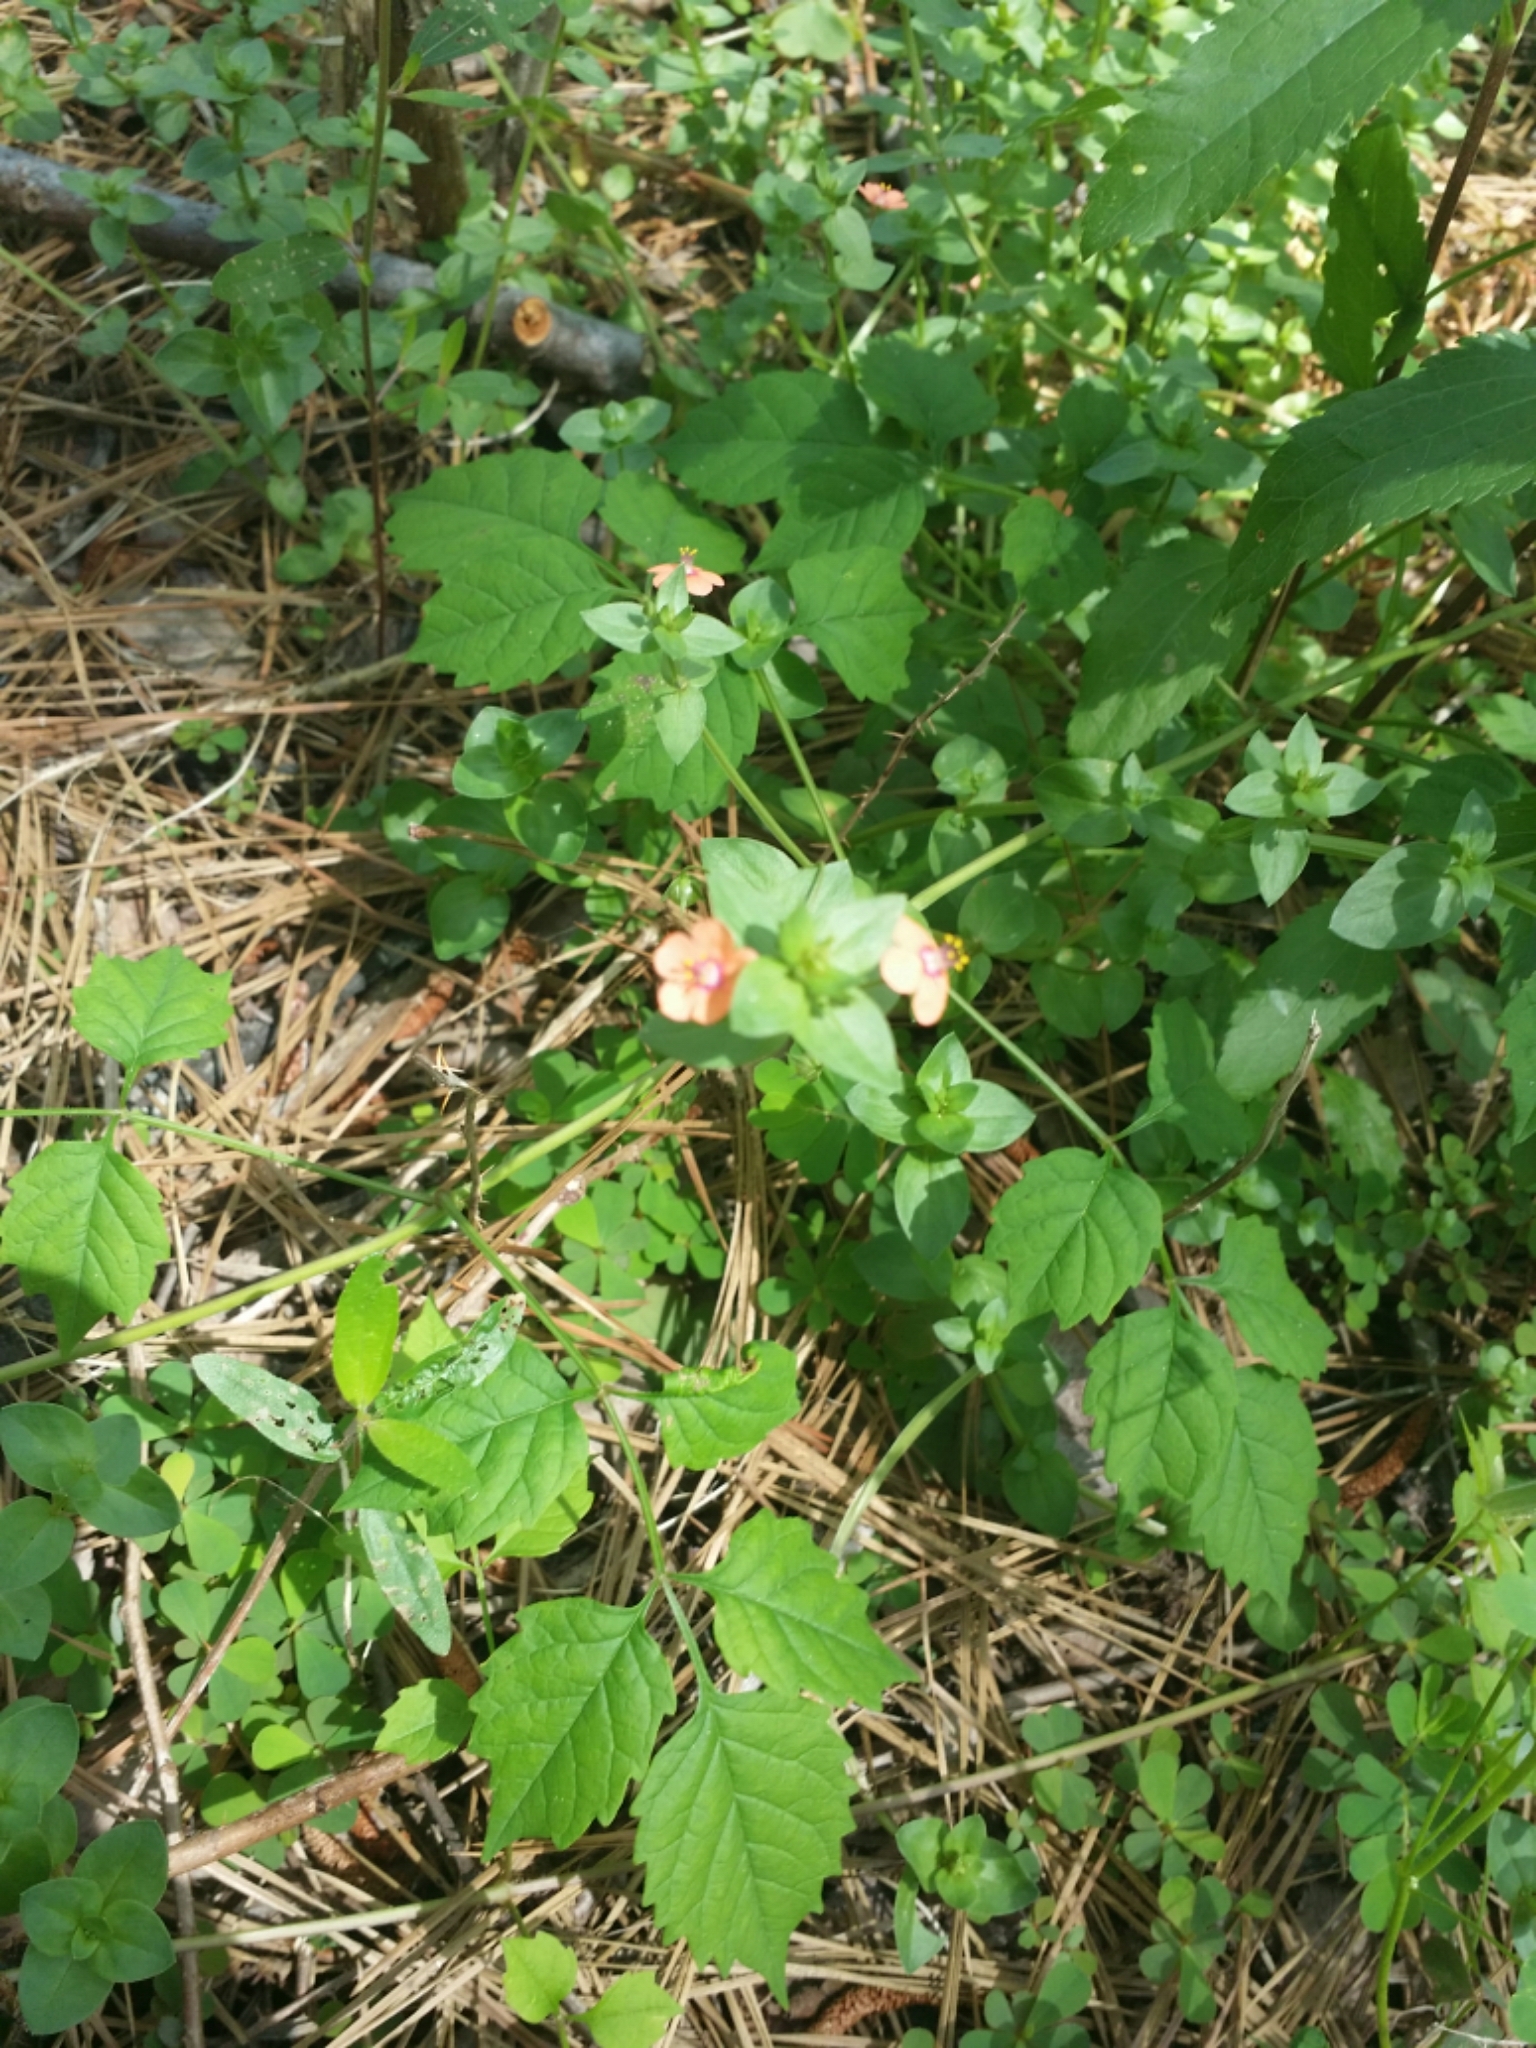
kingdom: Plantae
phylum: Tracheophyta
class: Magnoliopsida
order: Ericales
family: Primulaceae
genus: Lysimachia
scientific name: Lysimachia arvensis
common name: Scarlet pimpernel
